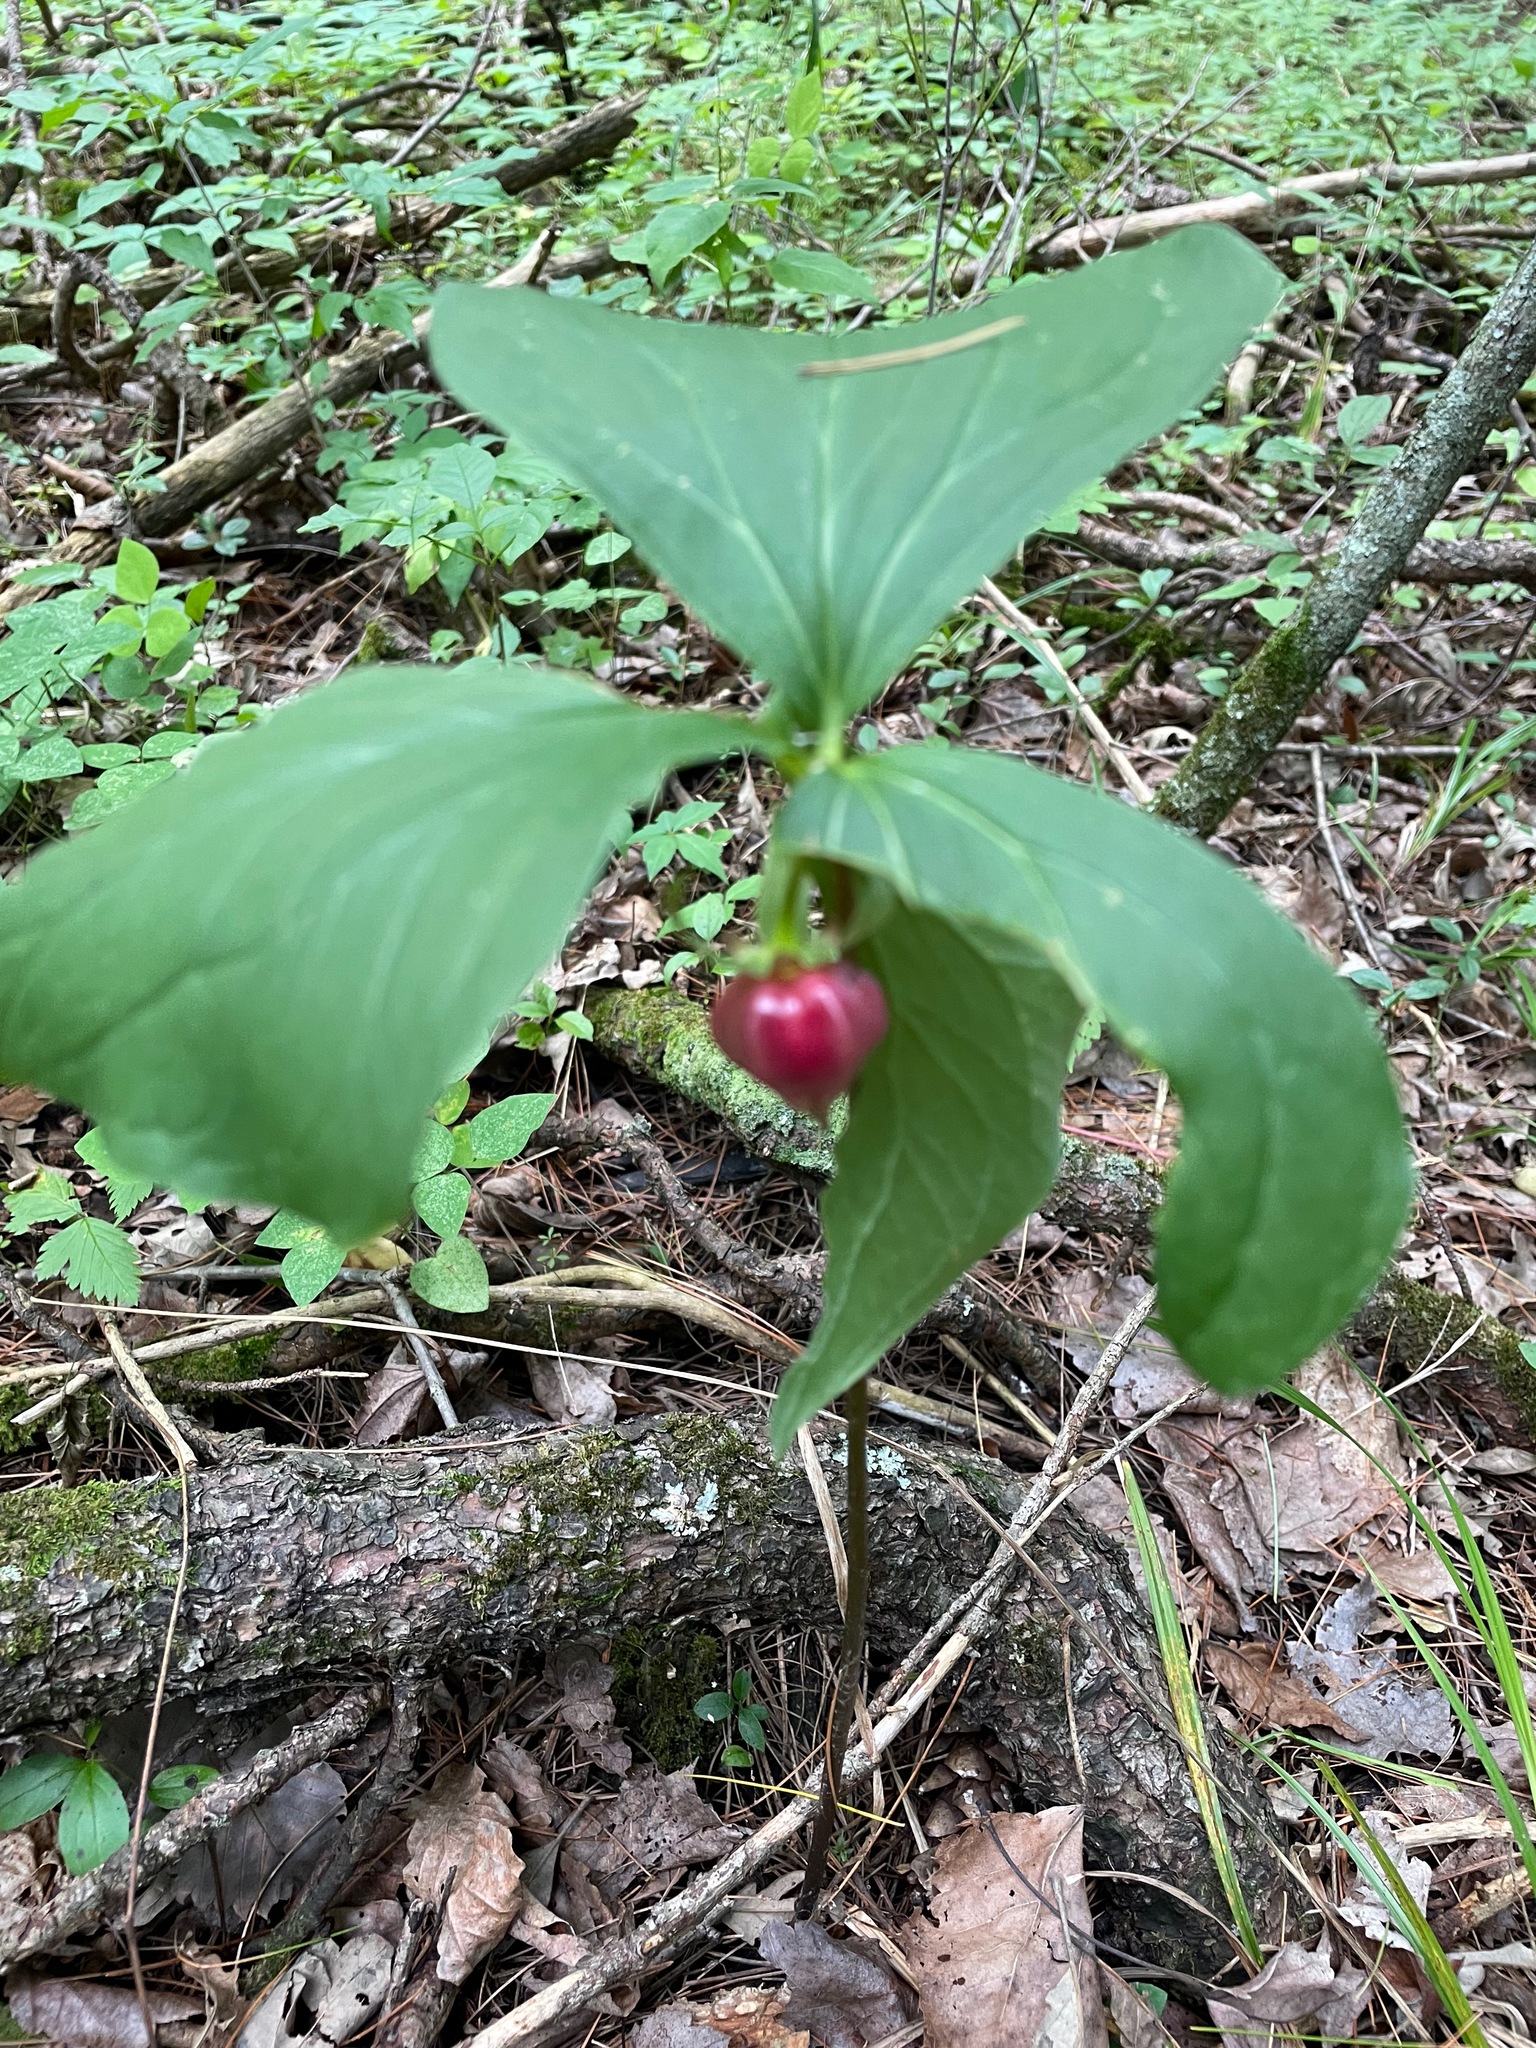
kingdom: Plantae
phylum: Tracheophyta
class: Liliopsida
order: Liliales
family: Melanthiaceae
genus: Trillium
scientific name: Trillium cernuum
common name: Nodding trillium
